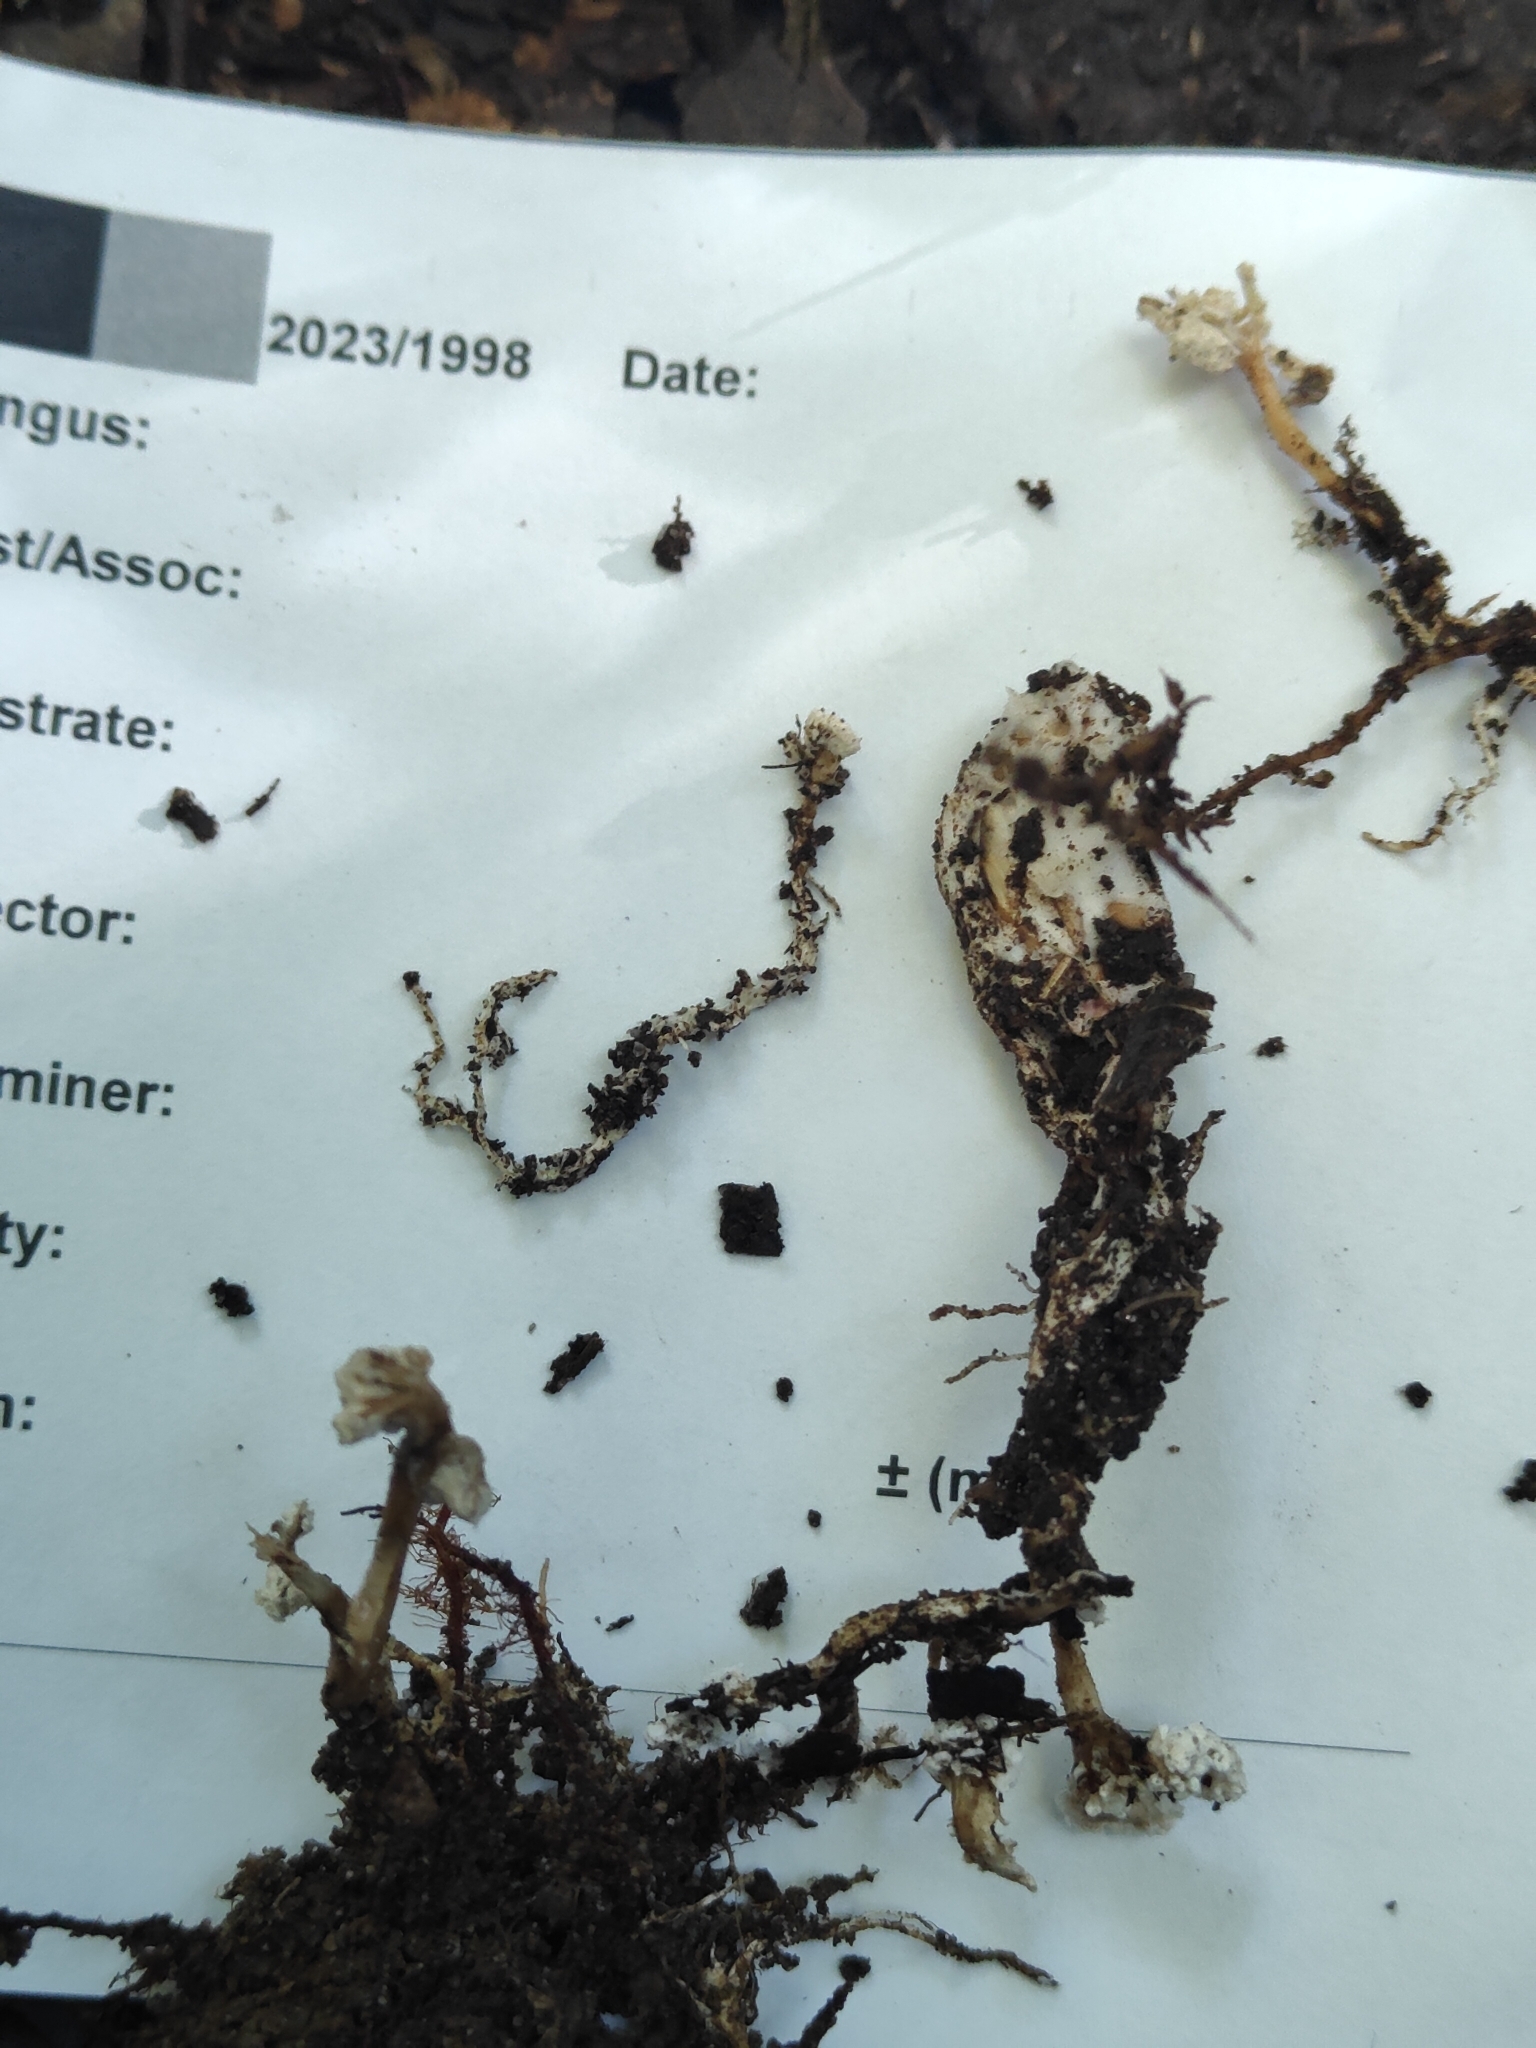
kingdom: Fungi
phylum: Ascomycota
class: Sordariomycetes
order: Hypocreales
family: Cordycipitaceae
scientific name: Cordycipitaceae
